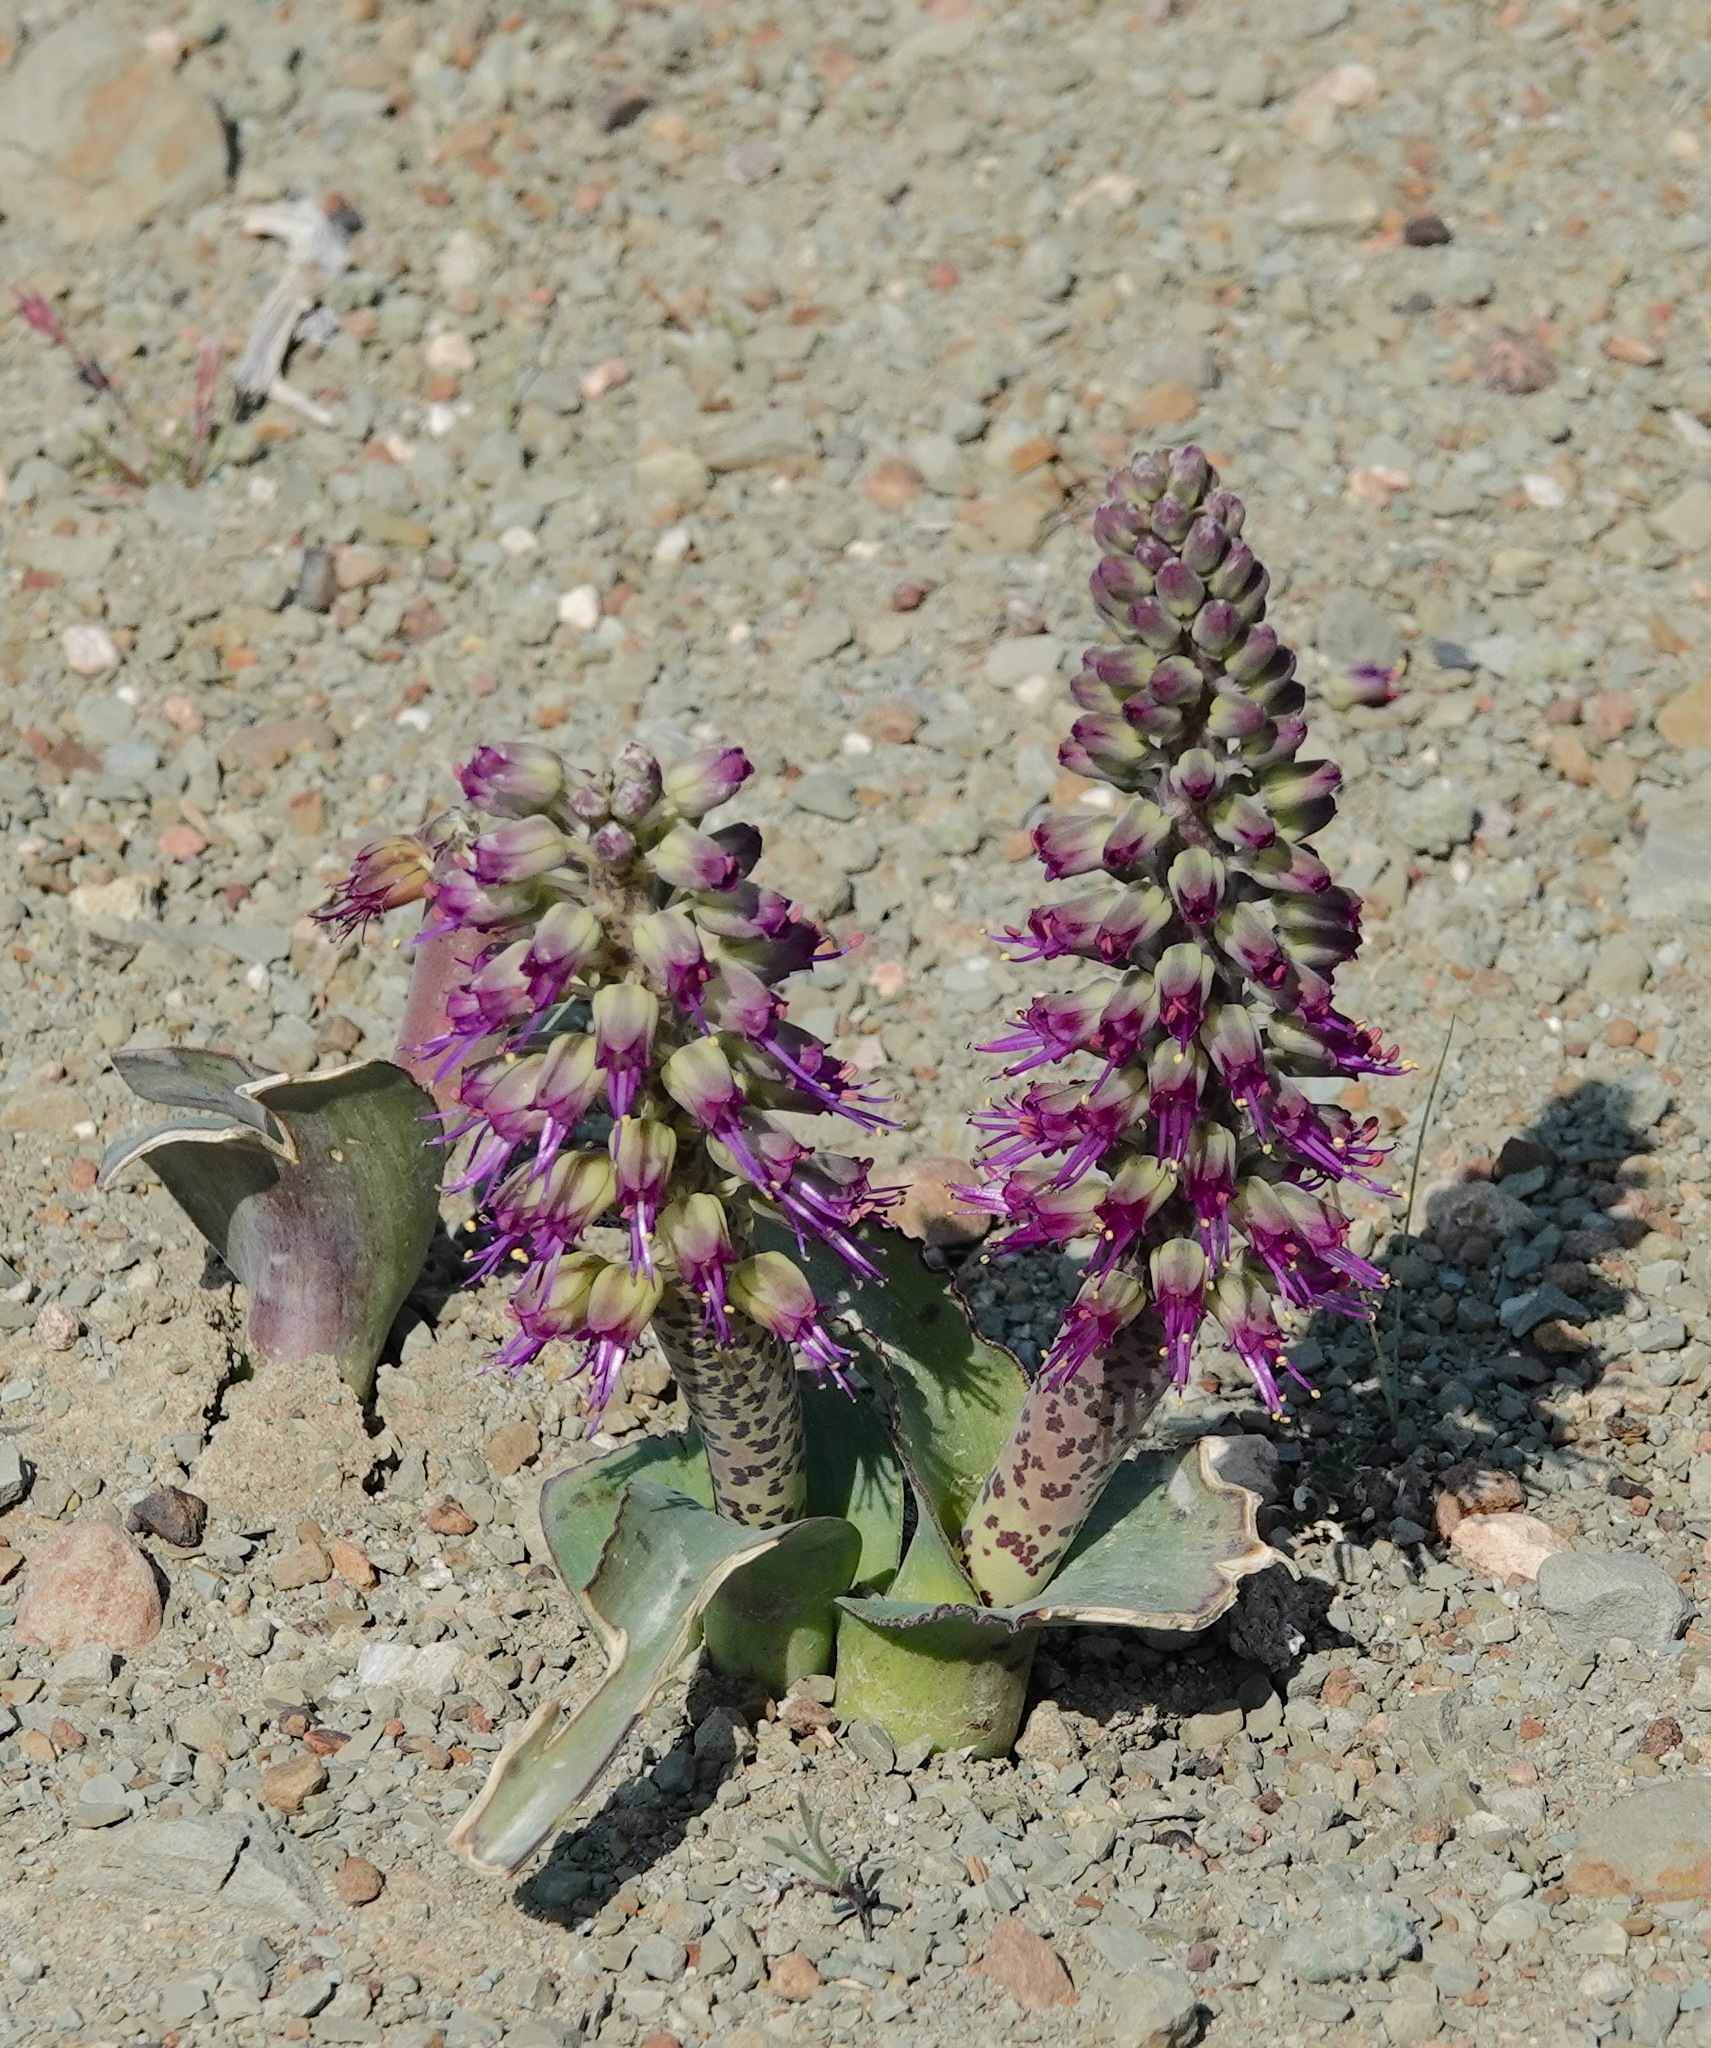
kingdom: Plantae
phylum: Tracheophyta
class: Liliopsida
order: Asparagales
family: Asparagaceae
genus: Lachenalia
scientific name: Lachenalia violacea
